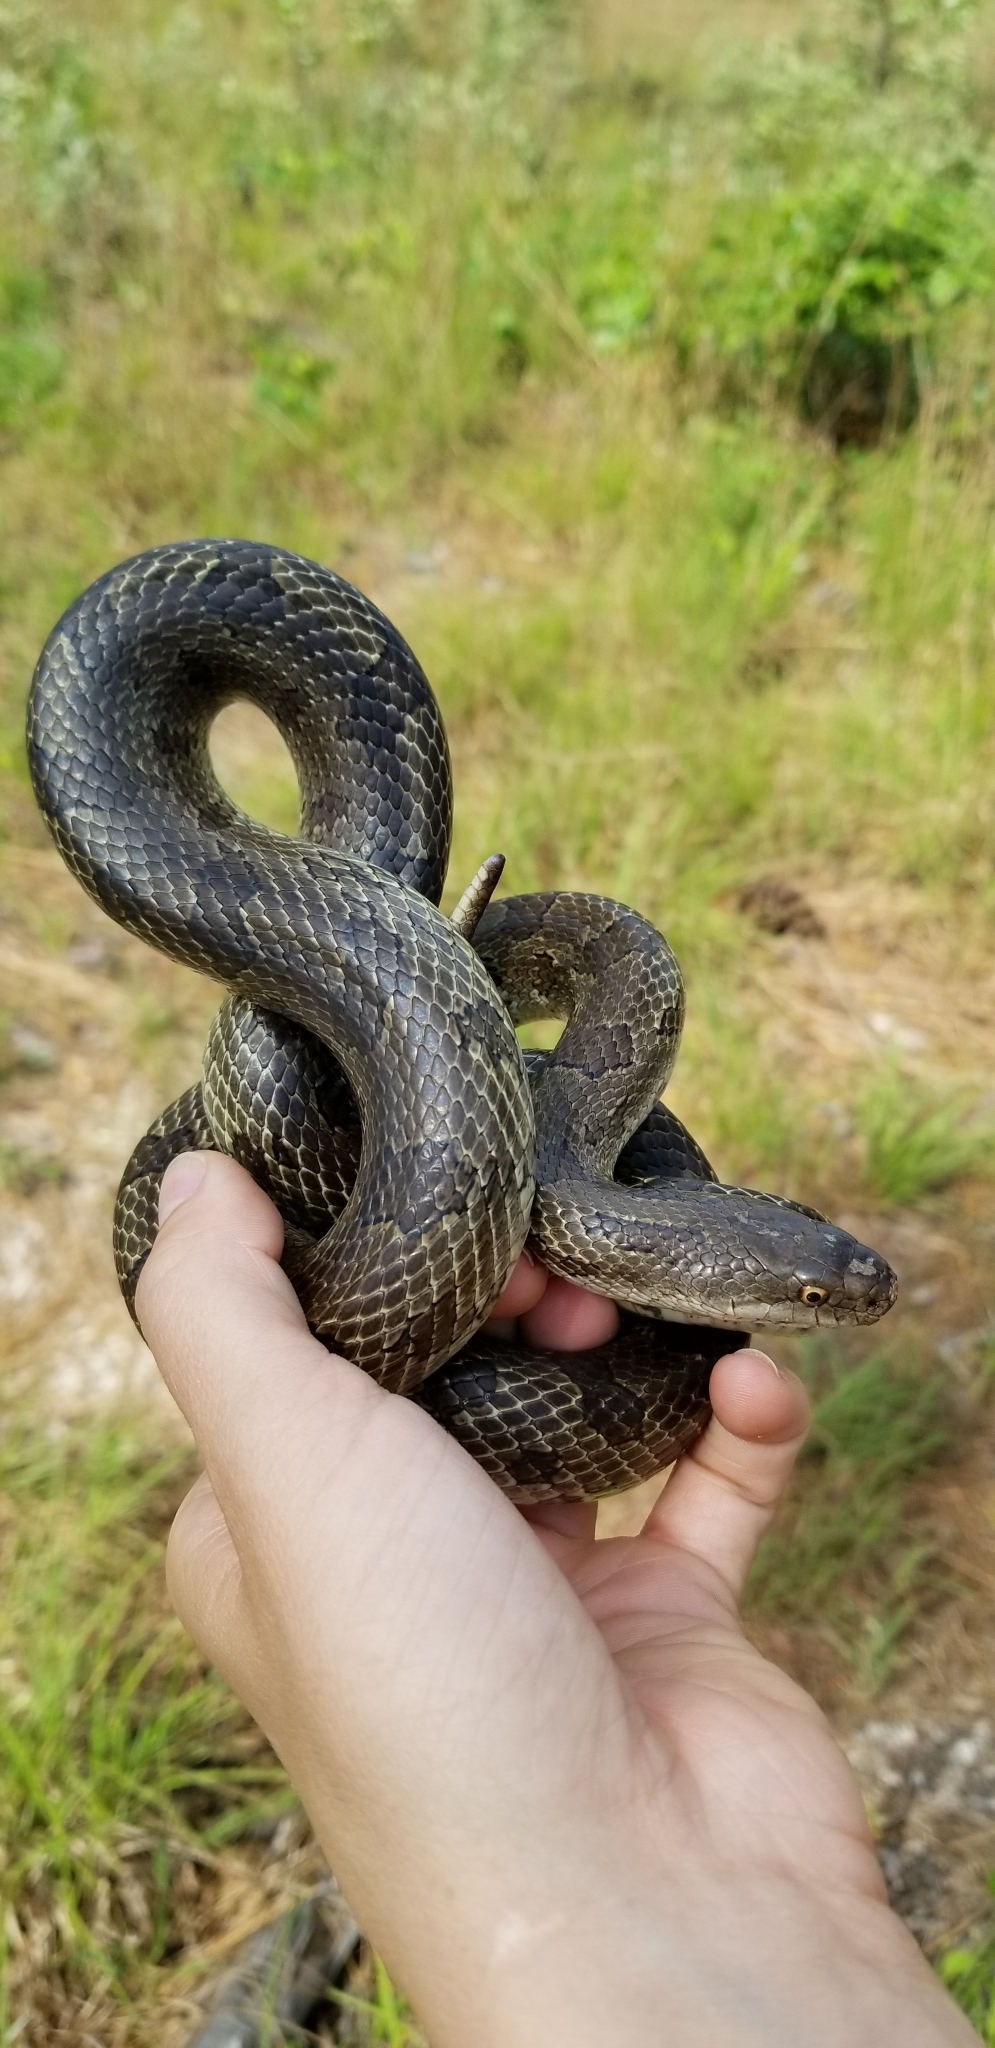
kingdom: Animalia
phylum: Chordata
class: Squamata
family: Colubridae
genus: Lampropeltis
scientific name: Lampropeltis calligaster
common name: Prairie kingsnake
